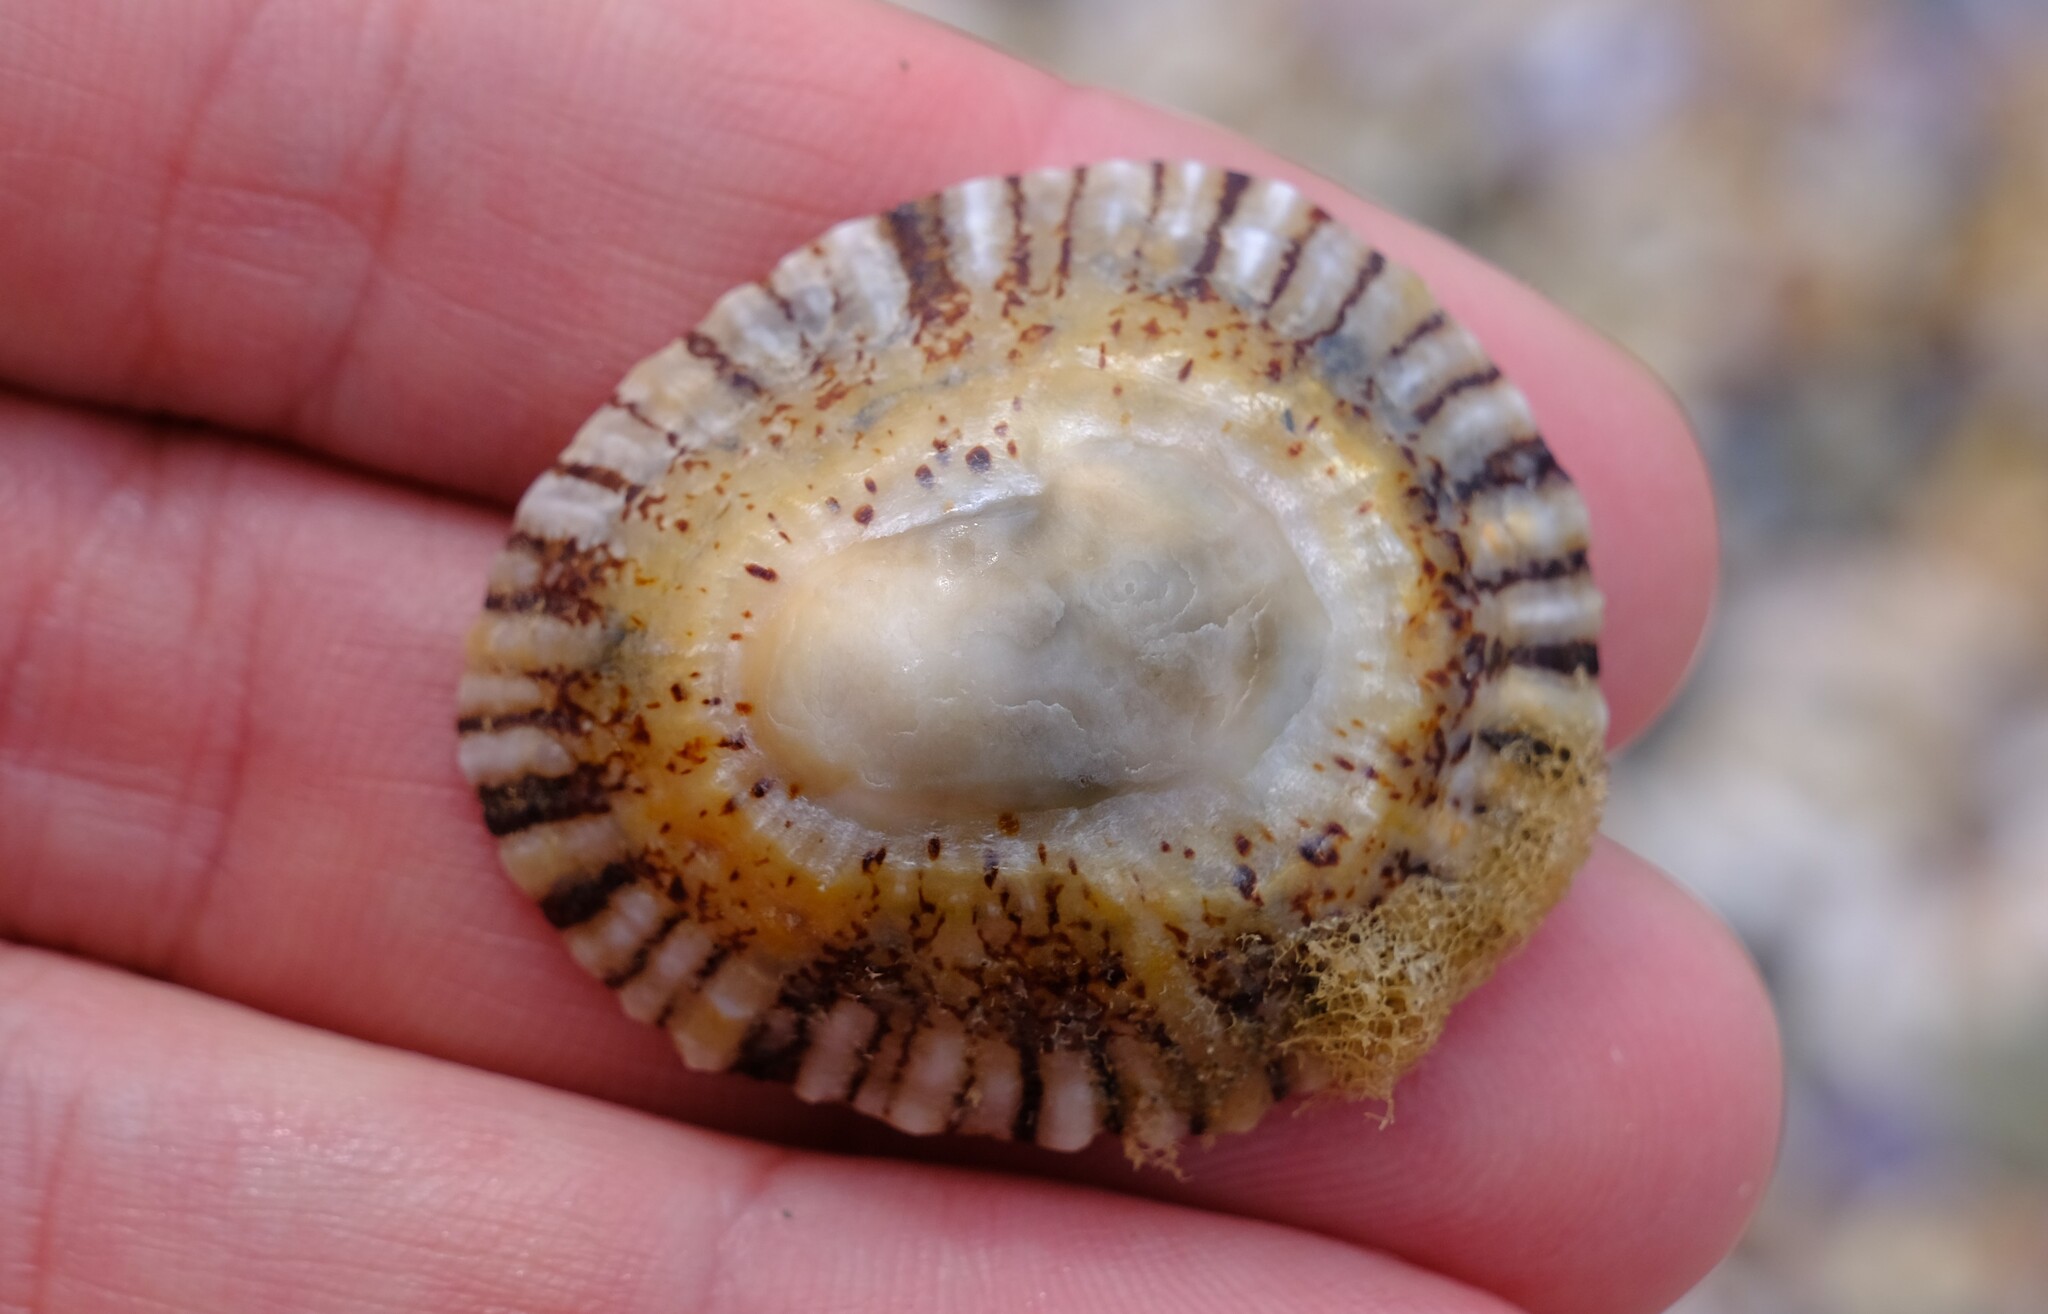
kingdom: Animalia
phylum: Mollusca
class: Gastropoda
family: Nacellidae
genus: Cellana
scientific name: Cellana tramoserica
